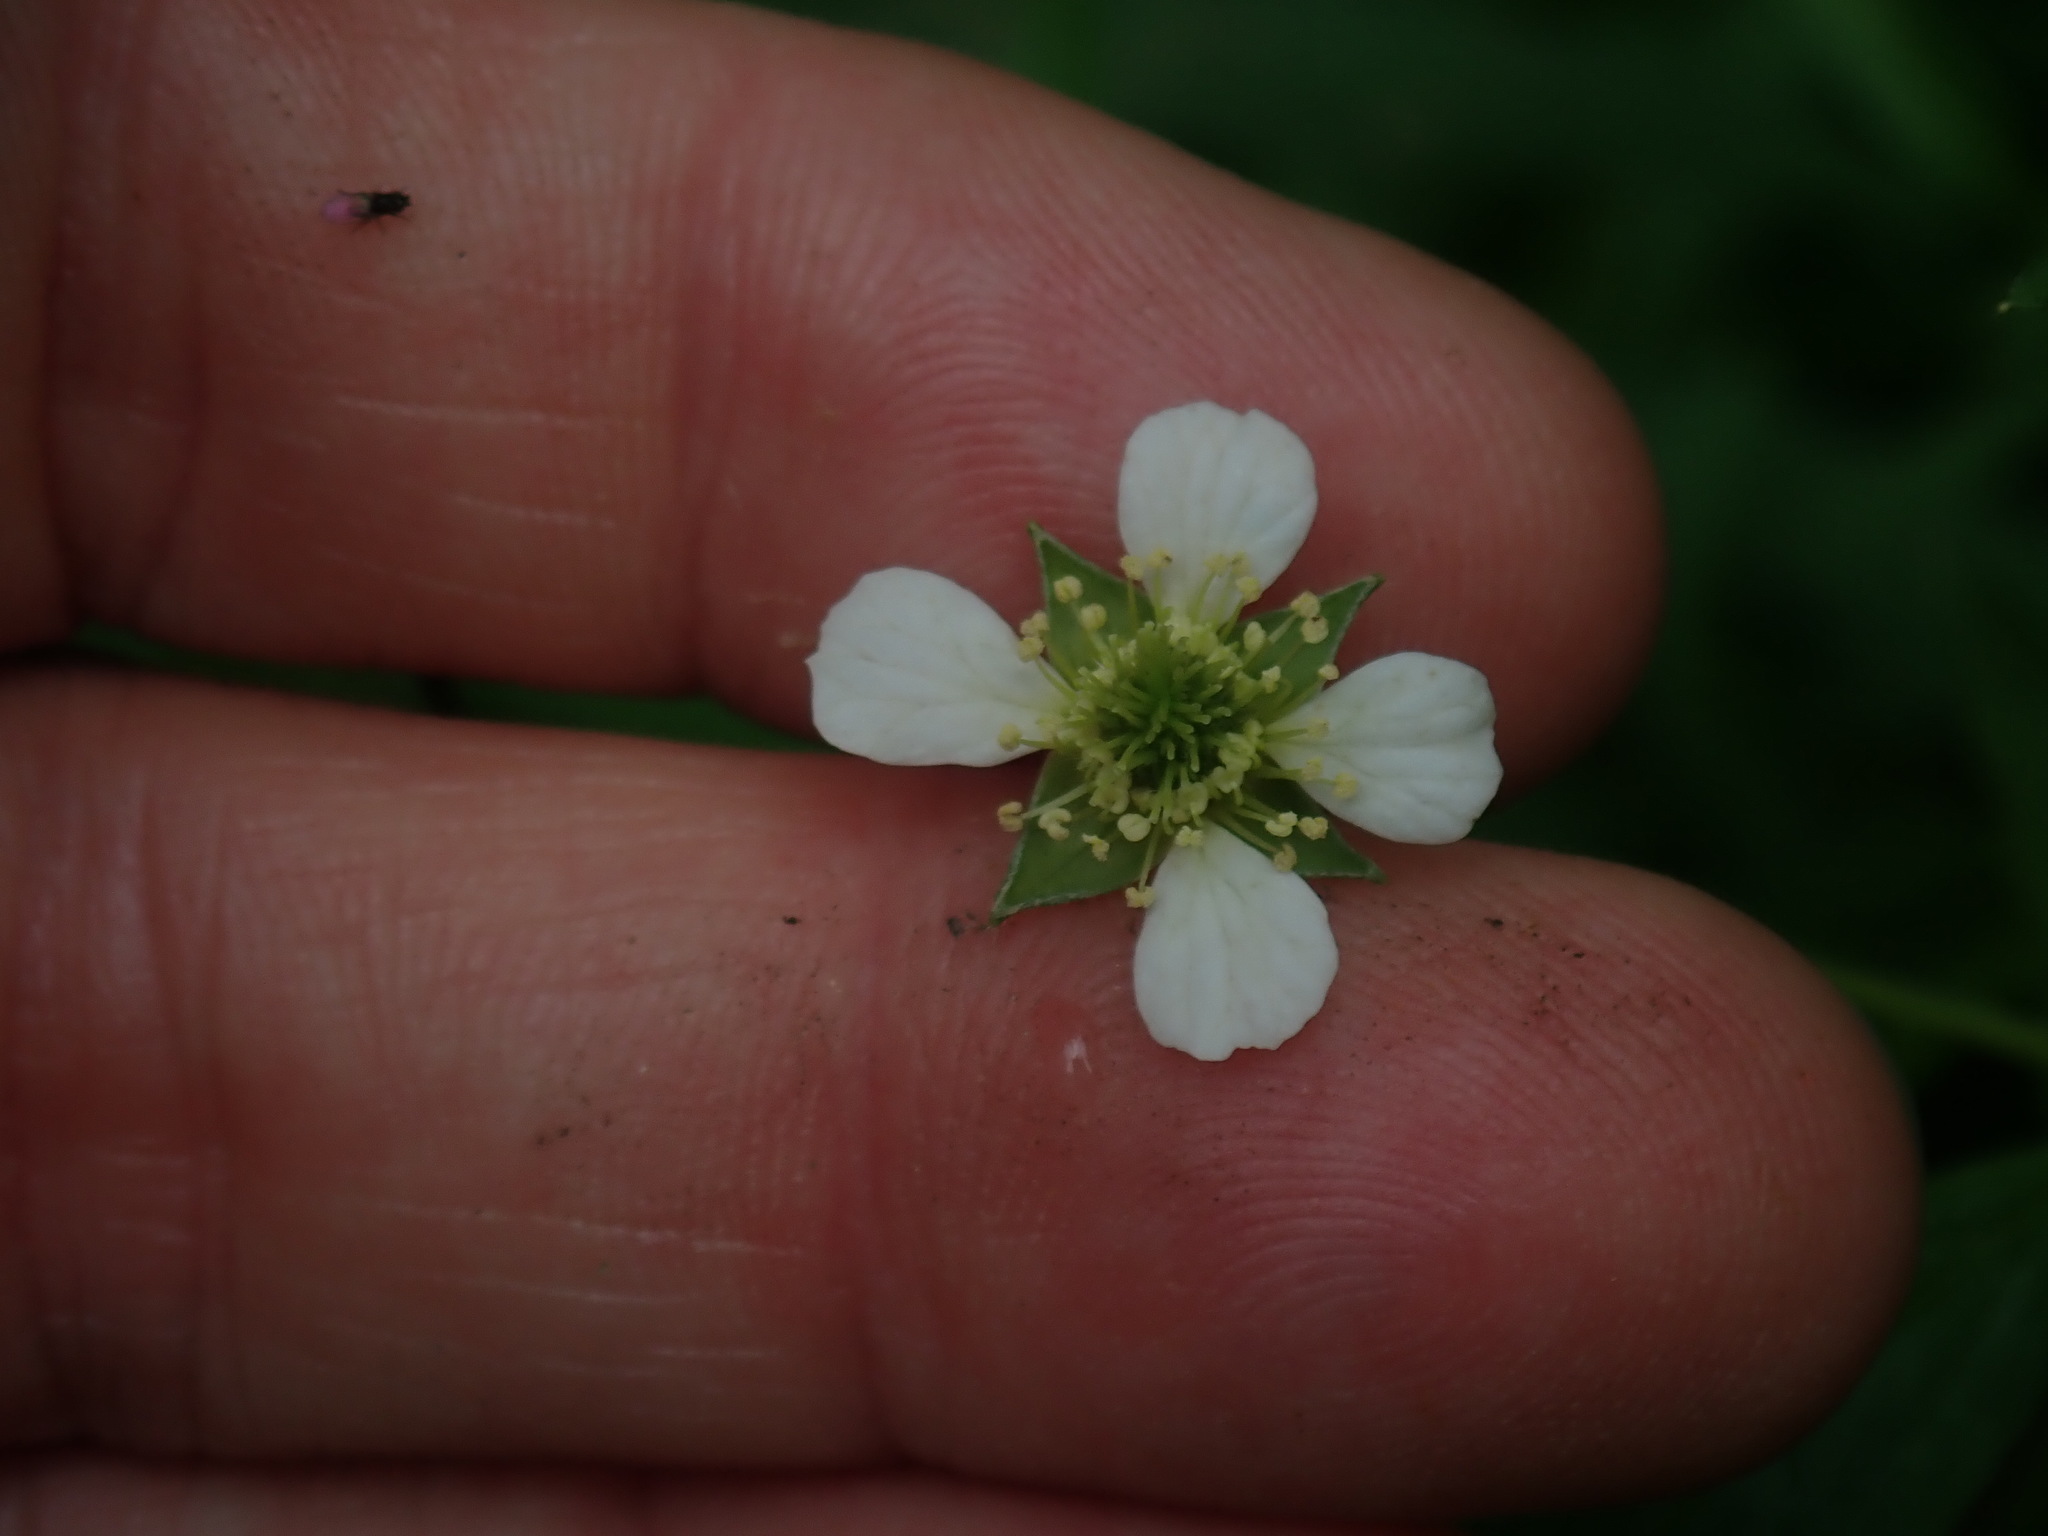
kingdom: Plantae
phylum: Tracheophyta
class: Magnoliopsida
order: Rosales
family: Rosaceae
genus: Geum
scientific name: Geum canadense
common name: White avens
